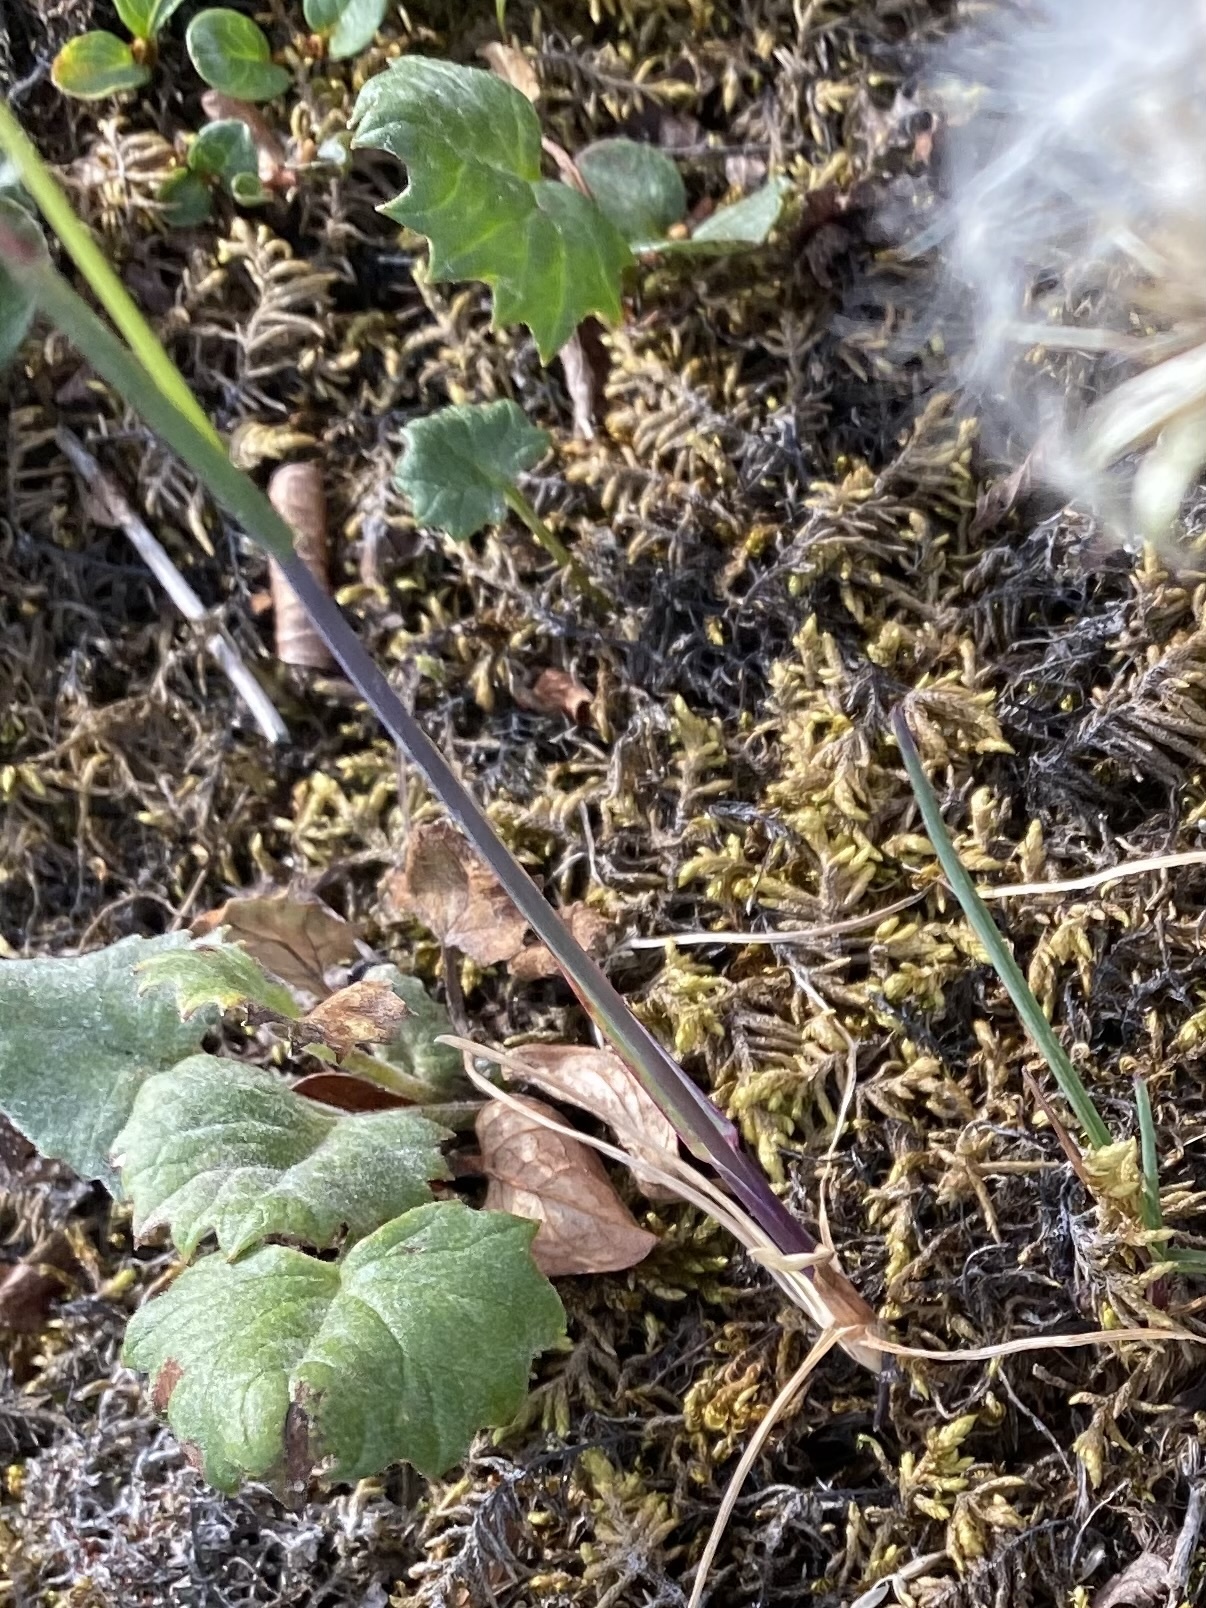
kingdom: Plantae
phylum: Tracheophyta
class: Magnoliopsida
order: Asterales
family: Asteraceae
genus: Endocellion
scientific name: Endocellion glaciale
